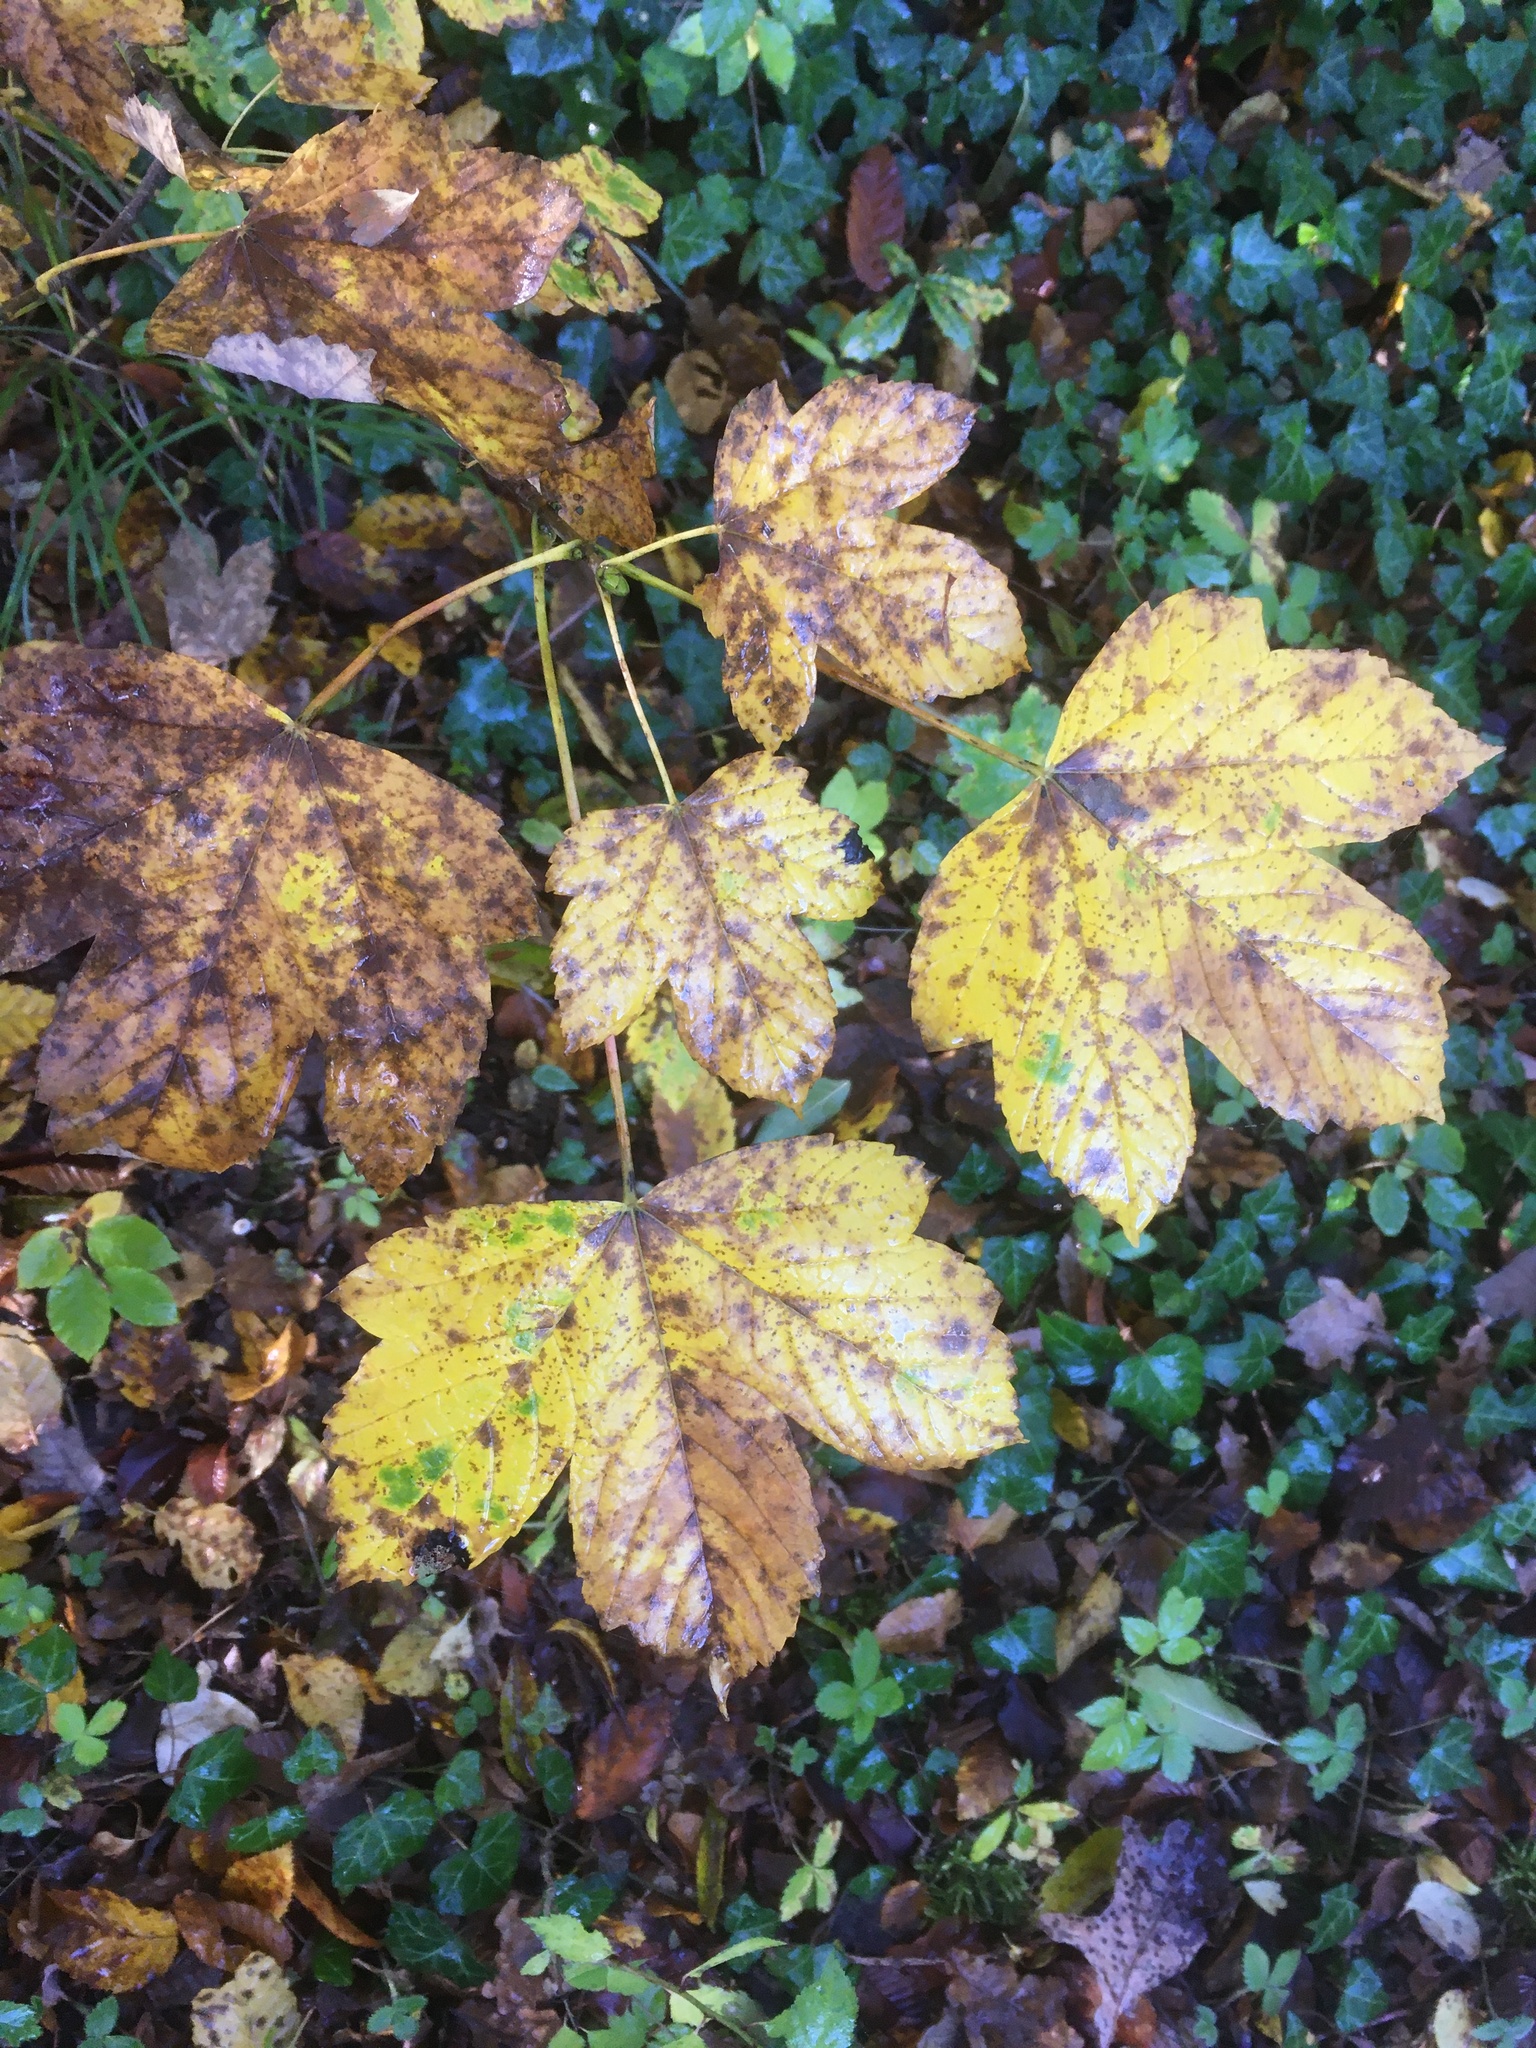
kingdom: Plantae
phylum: Tracheophyta
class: Magnoliopsida
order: Sapindales
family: Sapindaceae
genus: Acer
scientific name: Acer pseudoplatanus
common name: Sycamore
